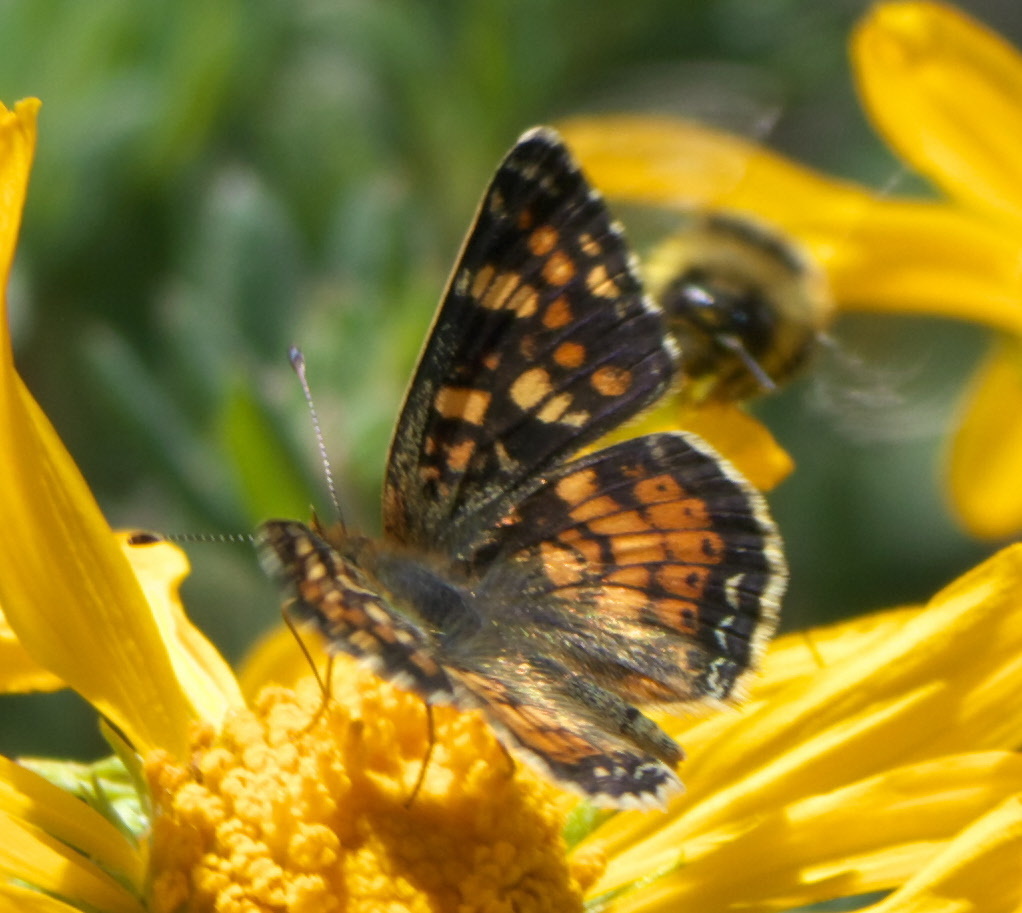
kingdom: Animalia
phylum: Arthropoda
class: Insecta
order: Lepidoptera
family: Nymphalidae
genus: Phyciodes
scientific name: Phyciodes tharos
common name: Pearl crescent
